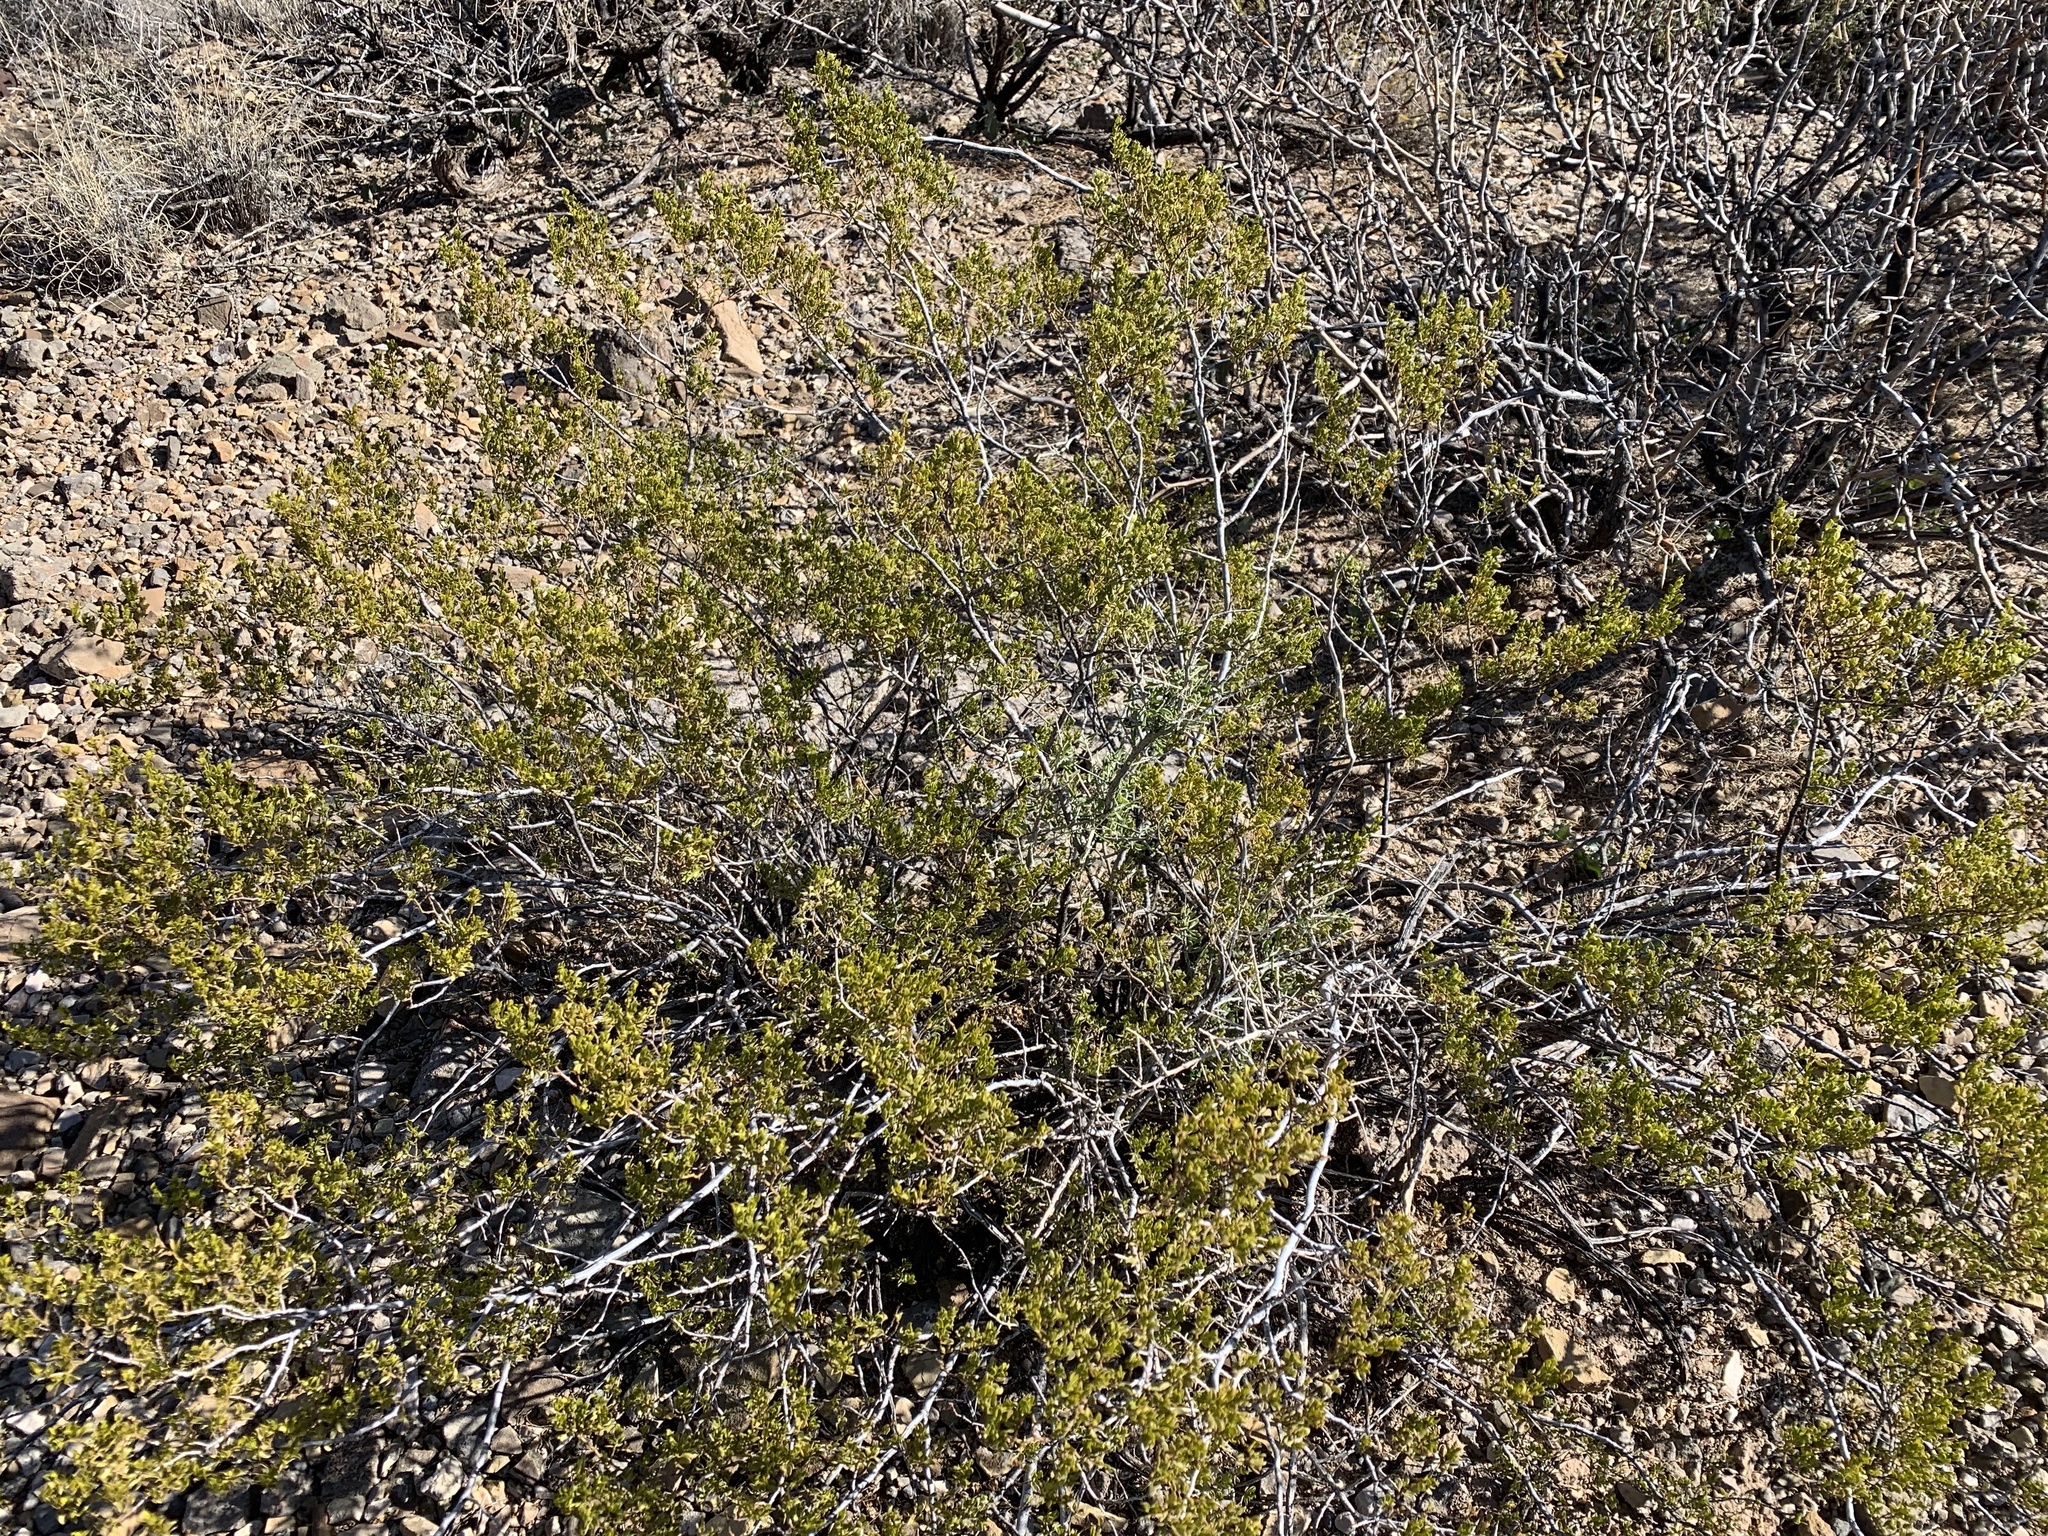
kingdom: Plantae
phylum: Tracheophyta
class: Magnoliopsida
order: Zygophyllales
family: Zygophyllaceae
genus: Larrea
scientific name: Larrea tridentata
